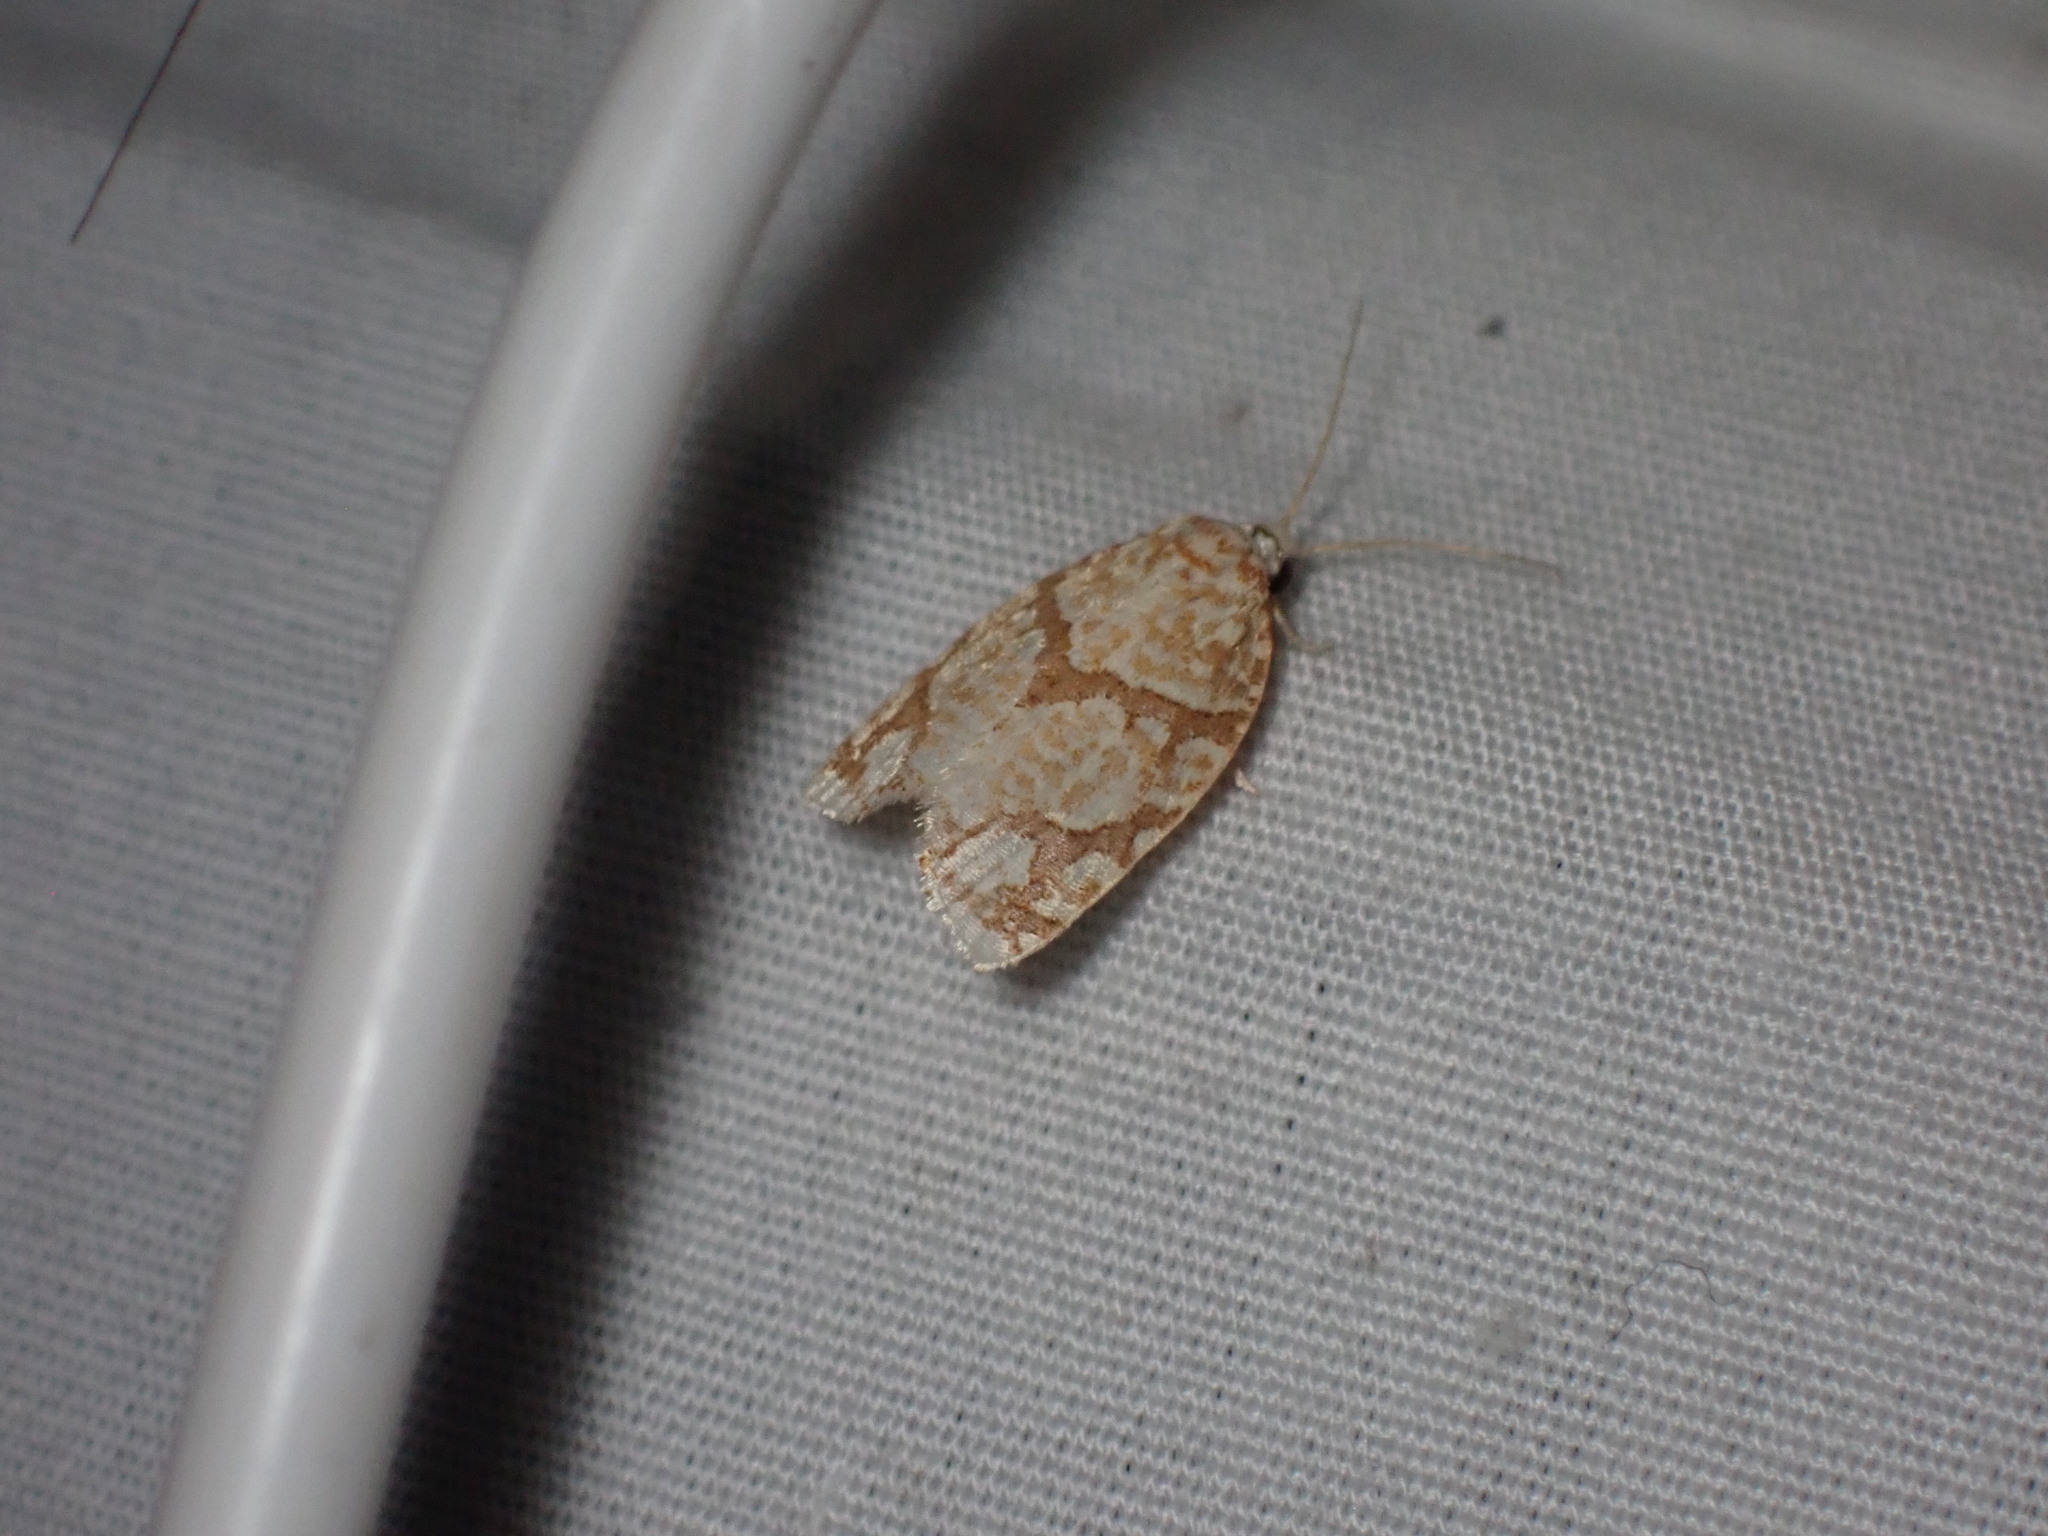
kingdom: Animalia
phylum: Arthropoda
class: Insecta
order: Lepidoptera
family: Tortricidae
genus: Argyrotaenia
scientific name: Argyrotaenia quercifoliana
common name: Yellow-winged oak leafroller moth
